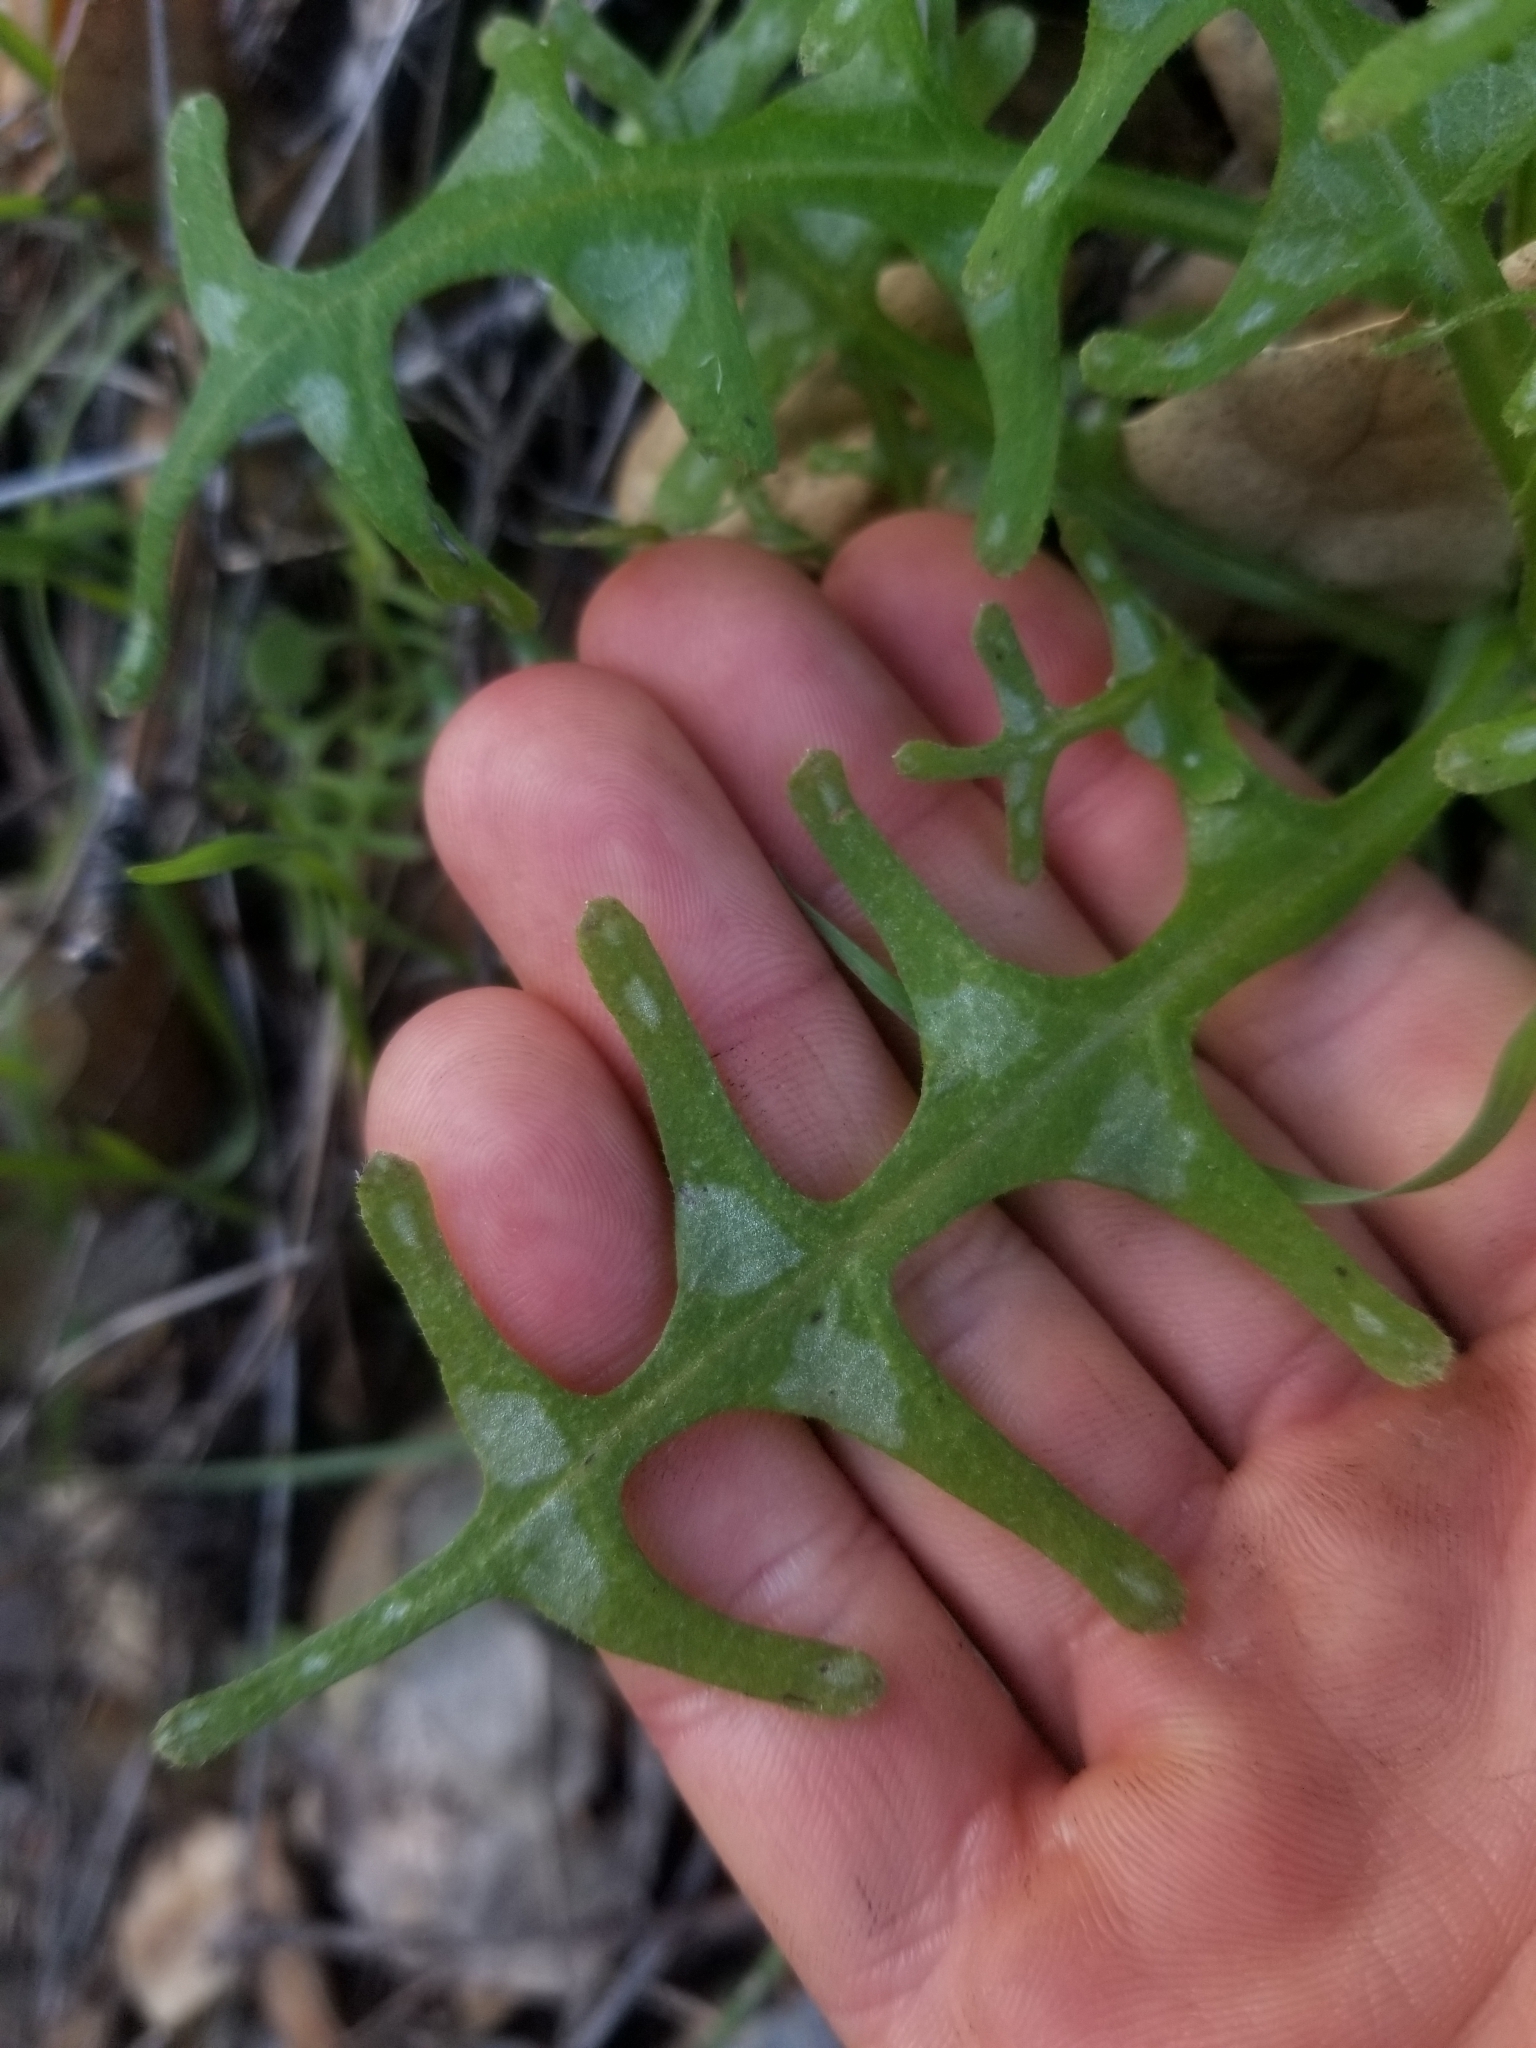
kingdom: Plantae
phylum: Tracheophyta
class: Magnoliopsida
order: Boraginales
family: Hydrophyllaceae
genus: Pholistoma
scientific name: Pholistoma auritum
